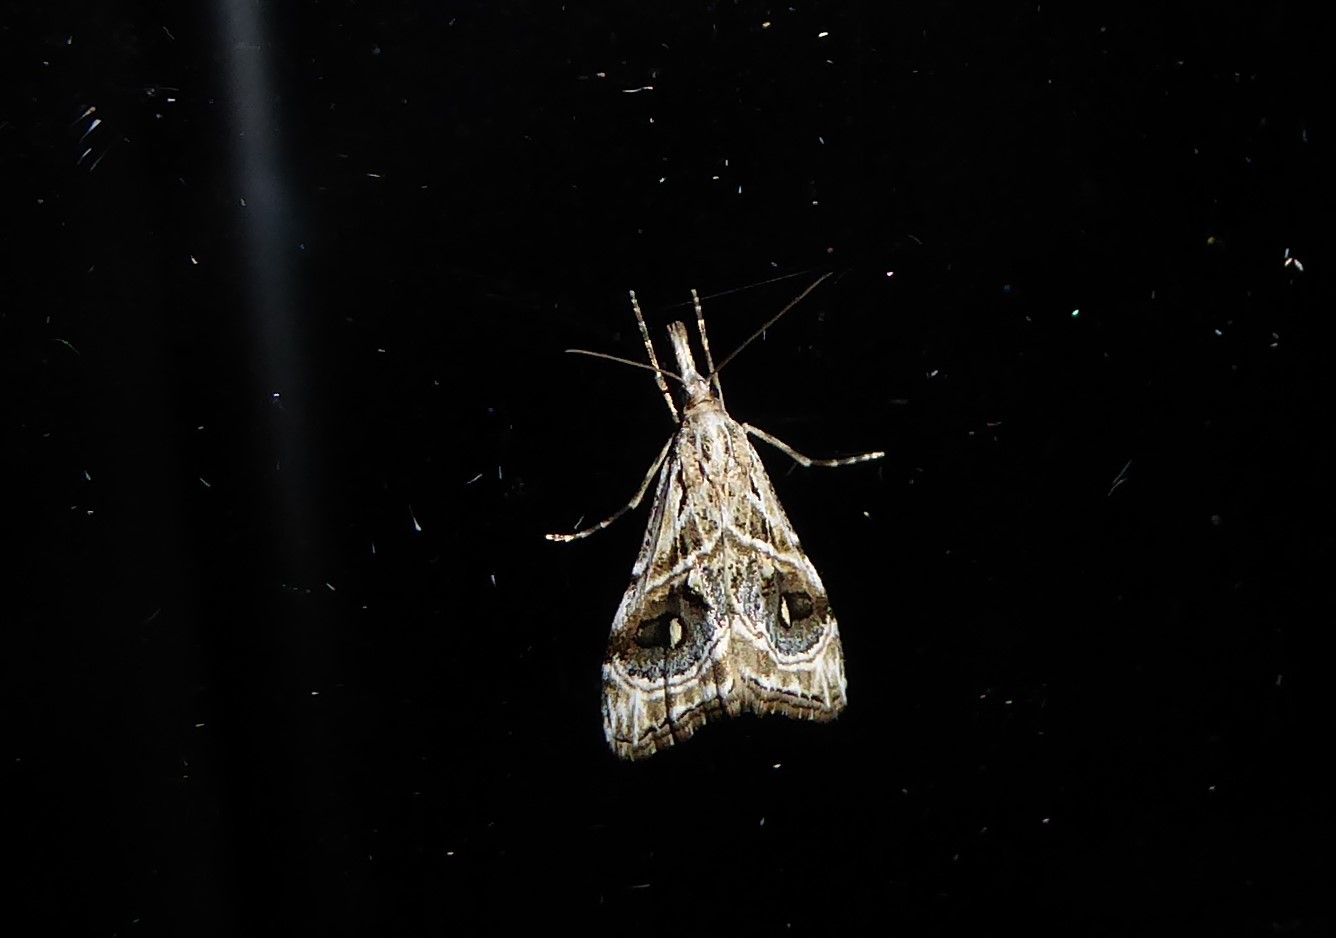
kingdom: Animalia
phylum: Arthropoda
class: Insecta
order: Lepidoptera
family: Crambidae
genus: Gadira
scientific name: Gadira acerella
